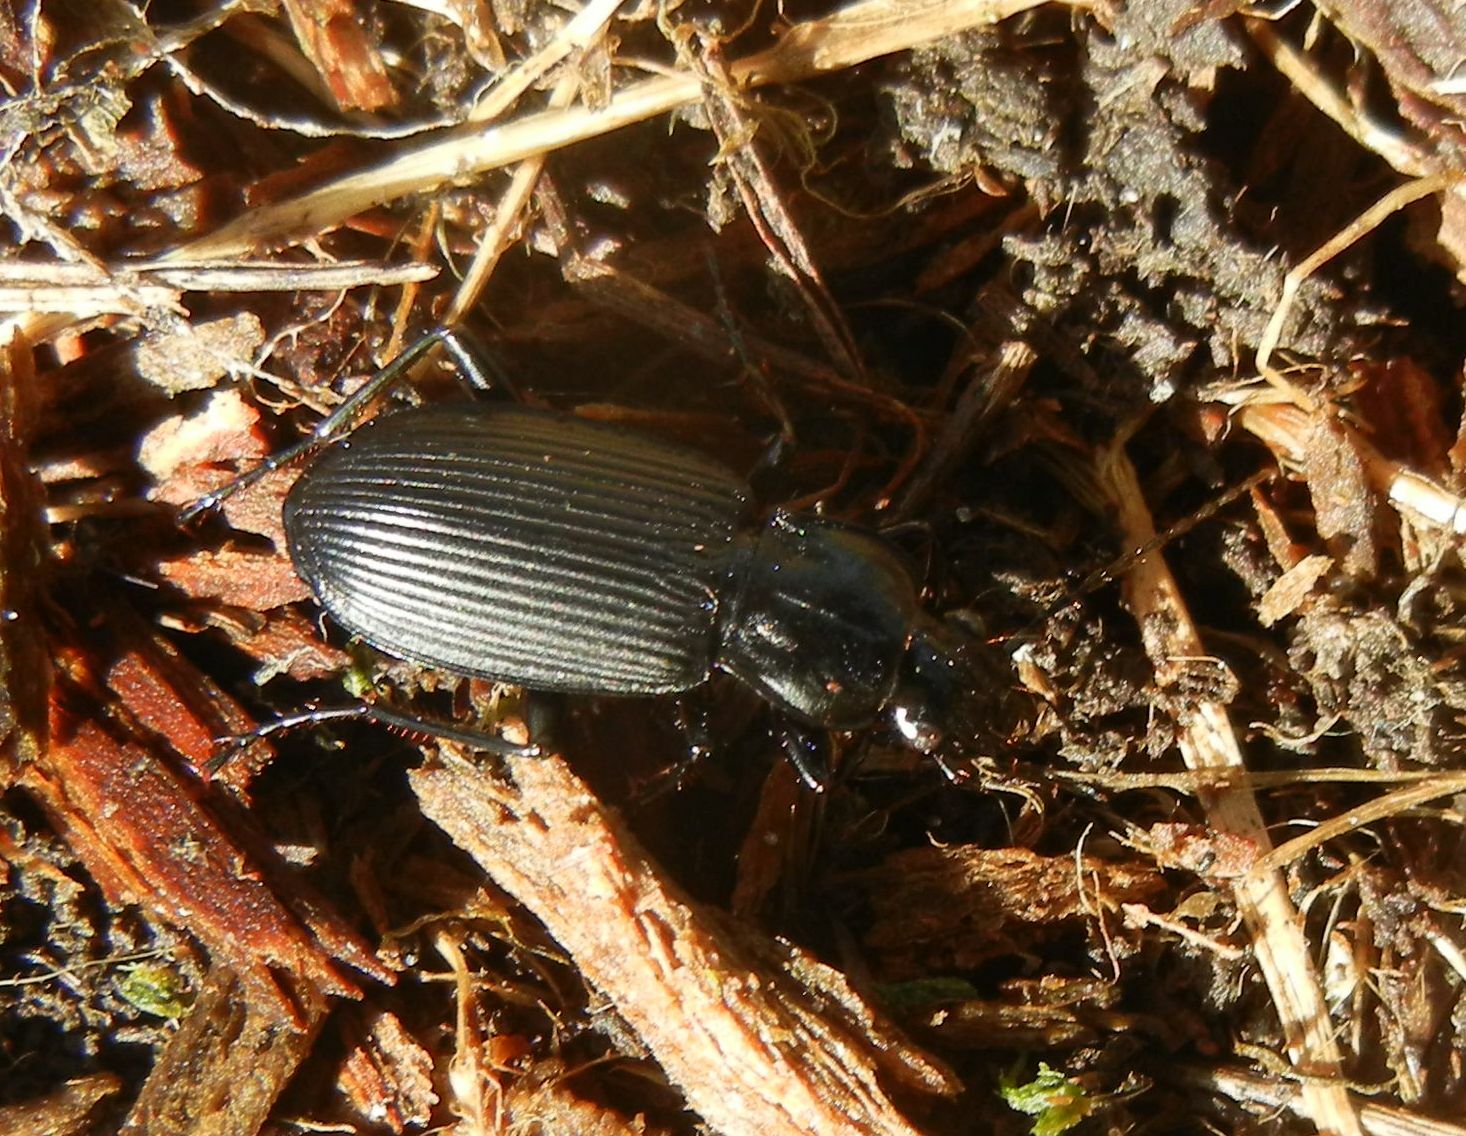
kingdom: Animalia
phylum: Arthropoda
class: Insecta
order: Coleoptera
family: Carabidae
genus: Pterostichus
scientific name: Pterostichus niger
